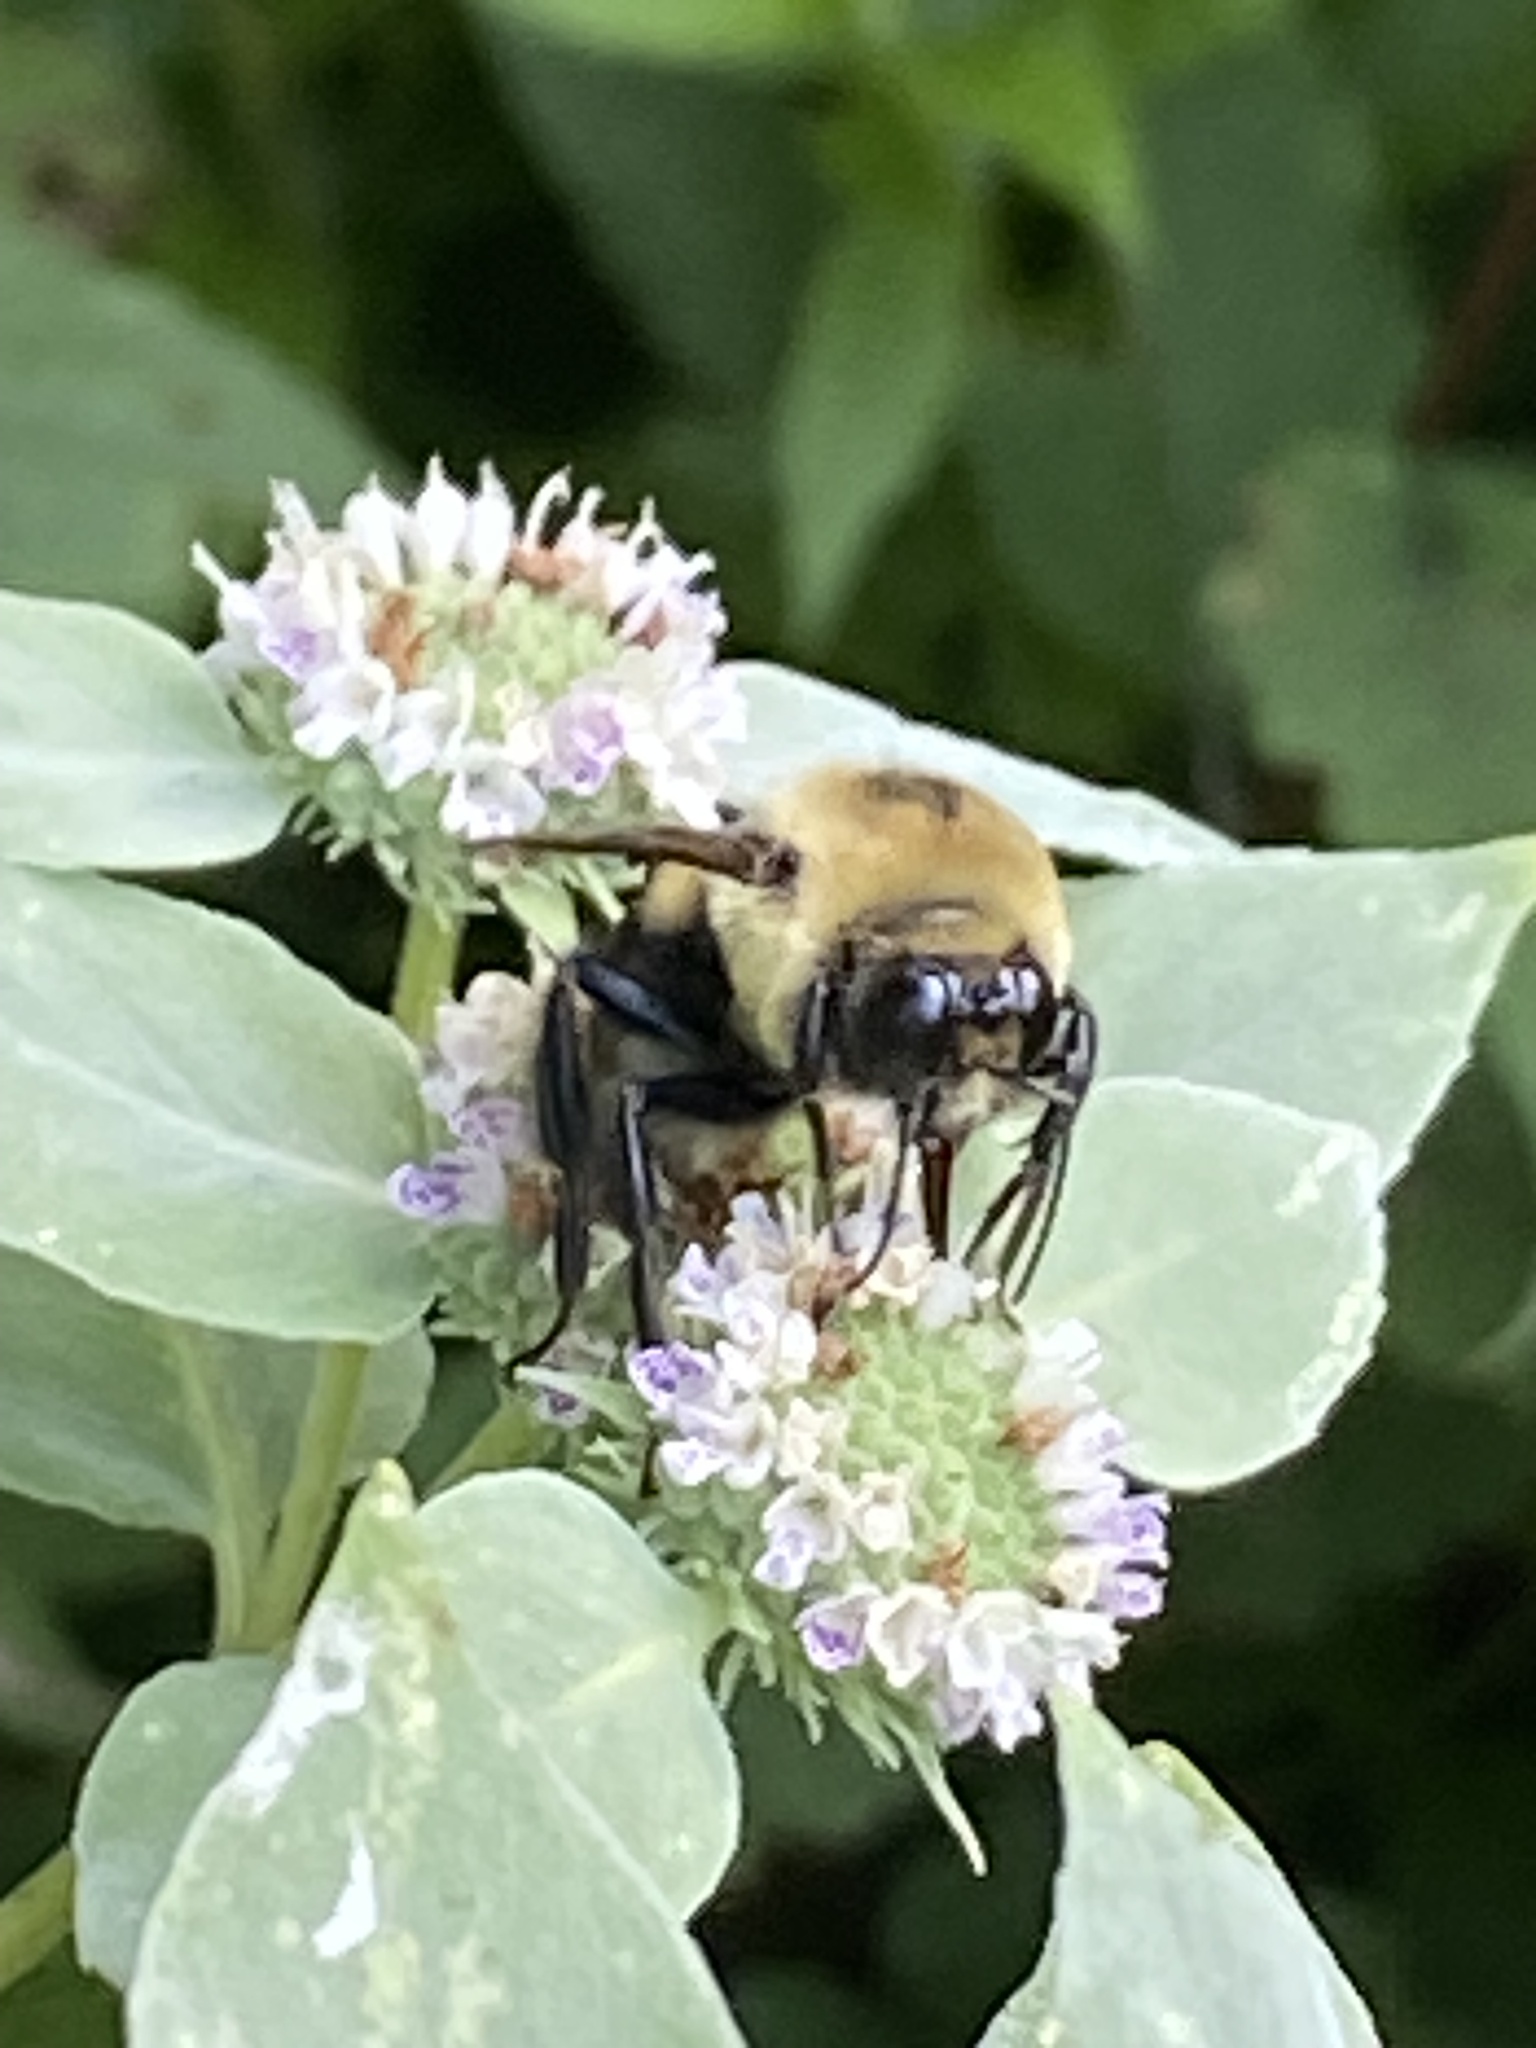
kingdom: Animalia
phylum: Arthropoda
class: Insecta
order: Hymenoptera
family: Apidae
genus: Bombus
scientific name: Bombus griseocollis
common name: Brown-belted bumble bee
